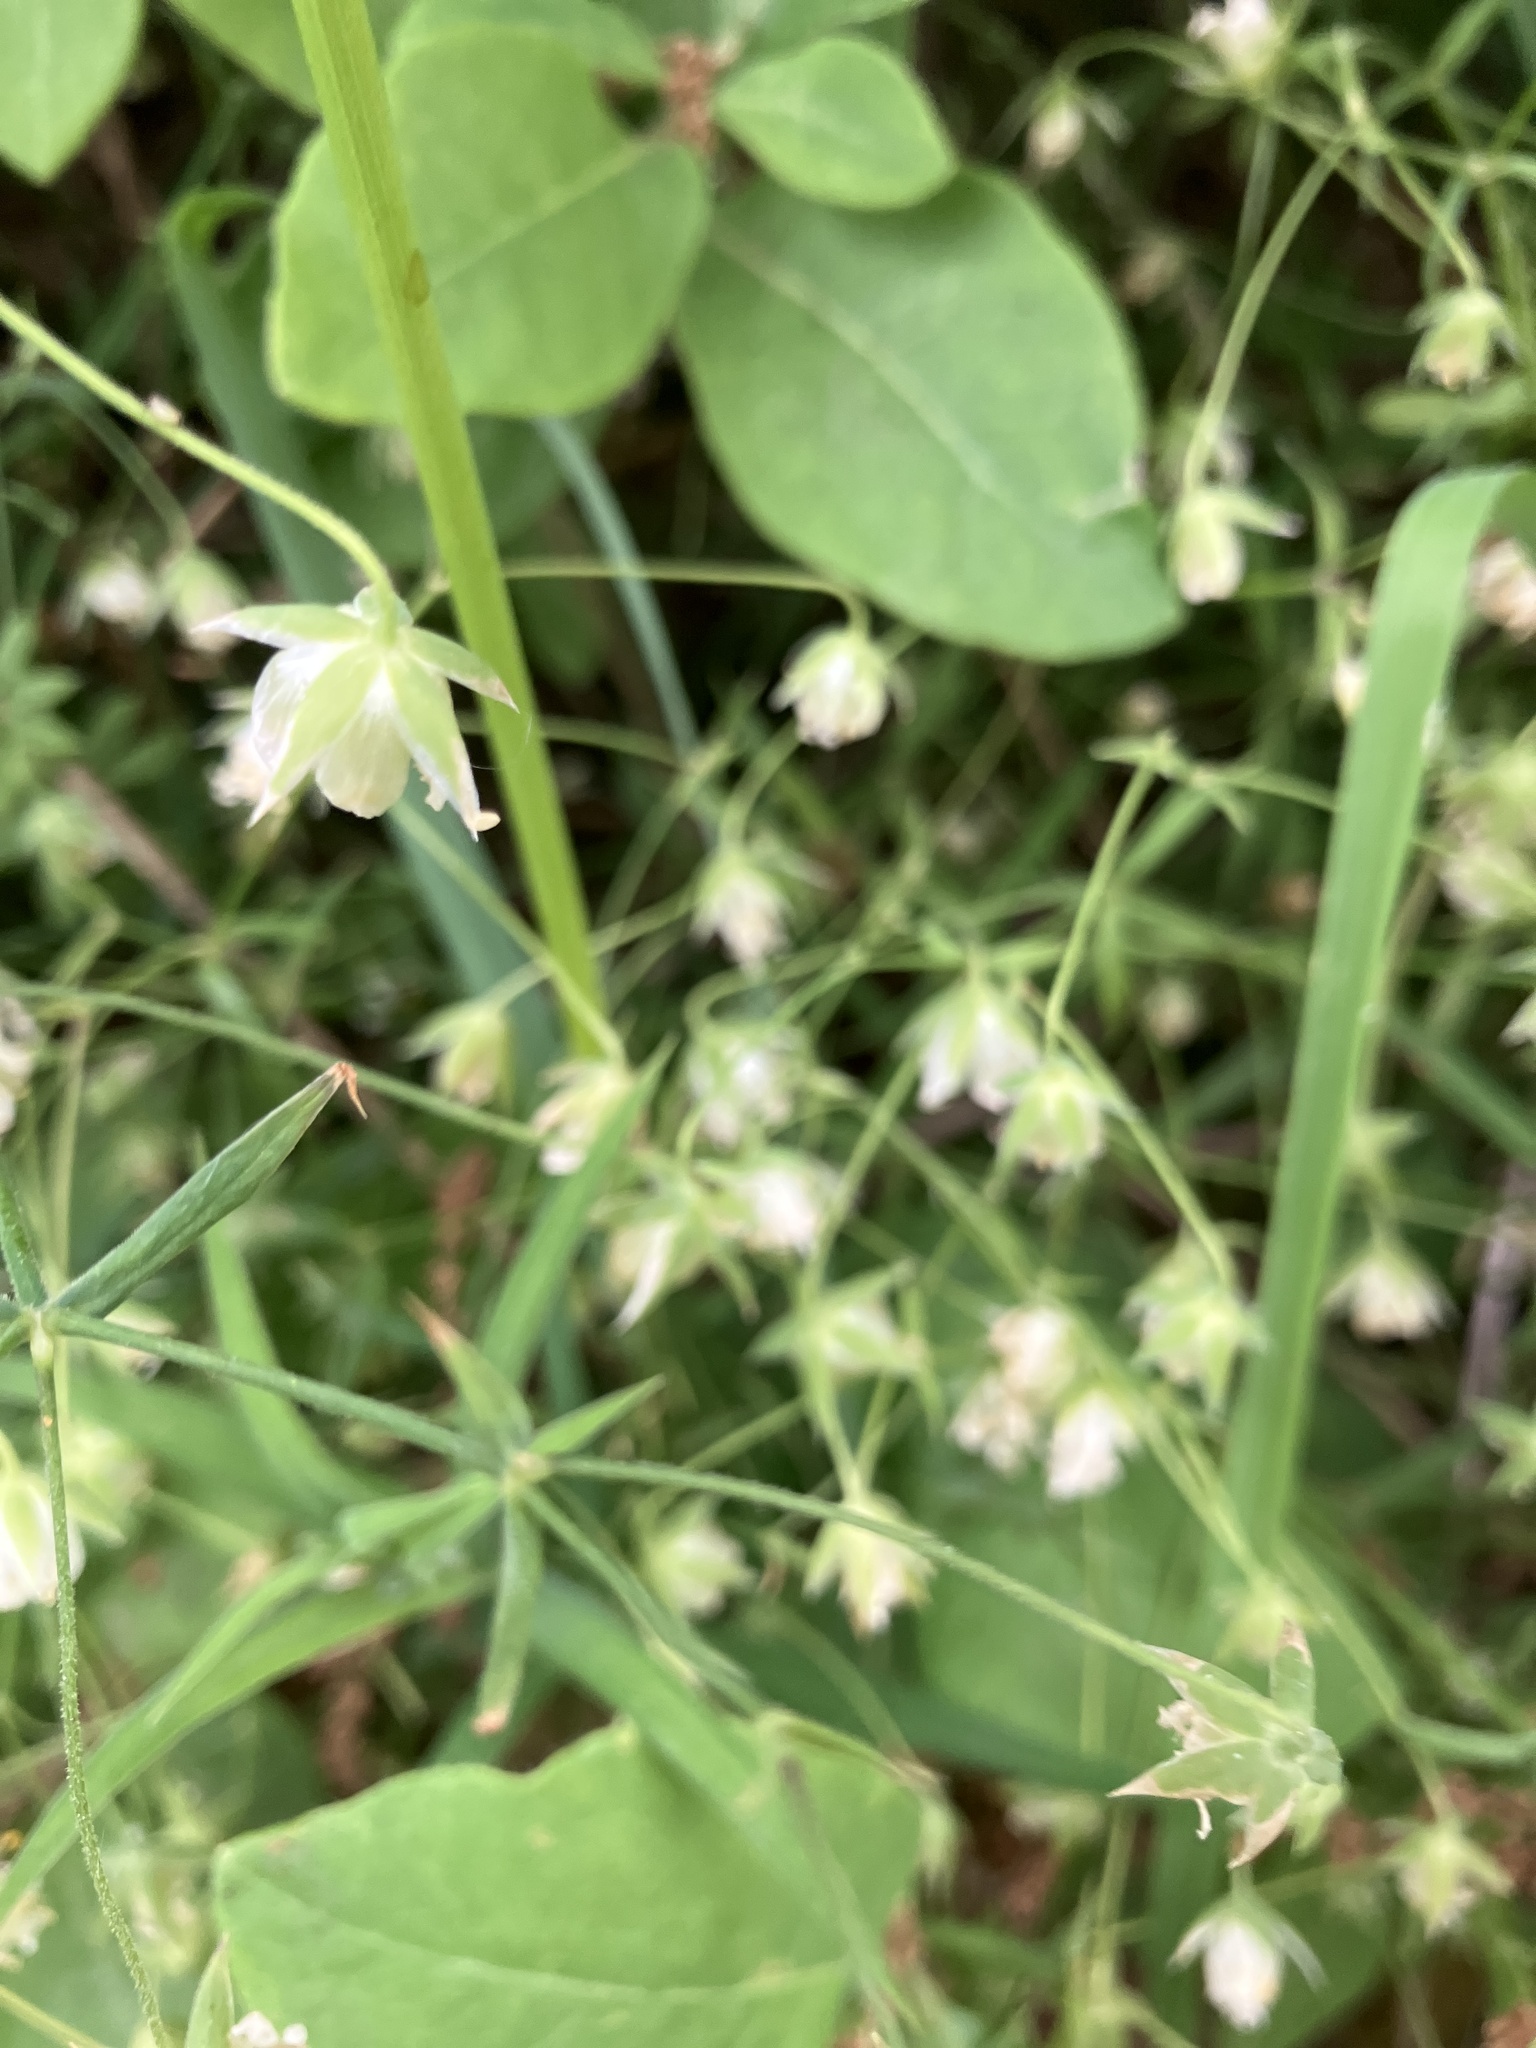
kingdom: Plantae
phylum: Tracheophyta
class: Magnoliopsida
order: Caryophyllales
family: Caryophyllaceae
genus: Rabelera
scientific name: Rabelera holostea
